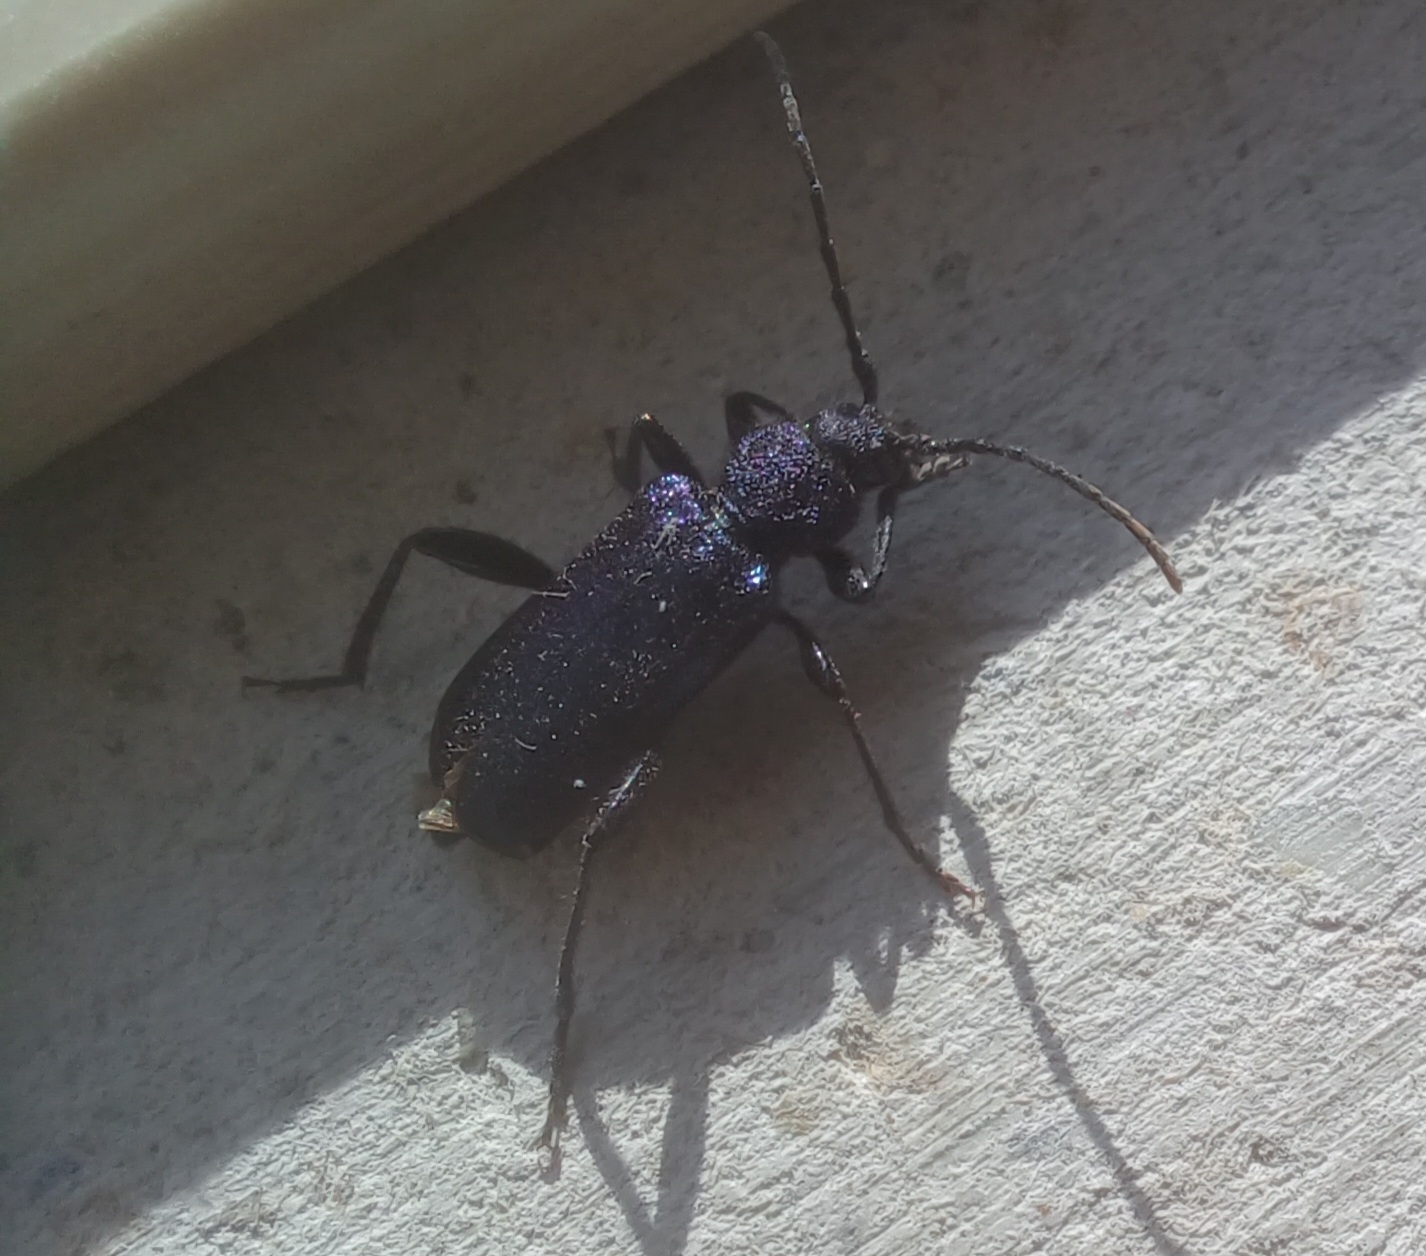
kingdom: Animalia
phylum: Arthropoda
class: Insecta
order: Coleoptera
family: Cerambycidae
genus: Callidium
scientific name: Callidium violaceum
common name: Violet tanbark beetle
